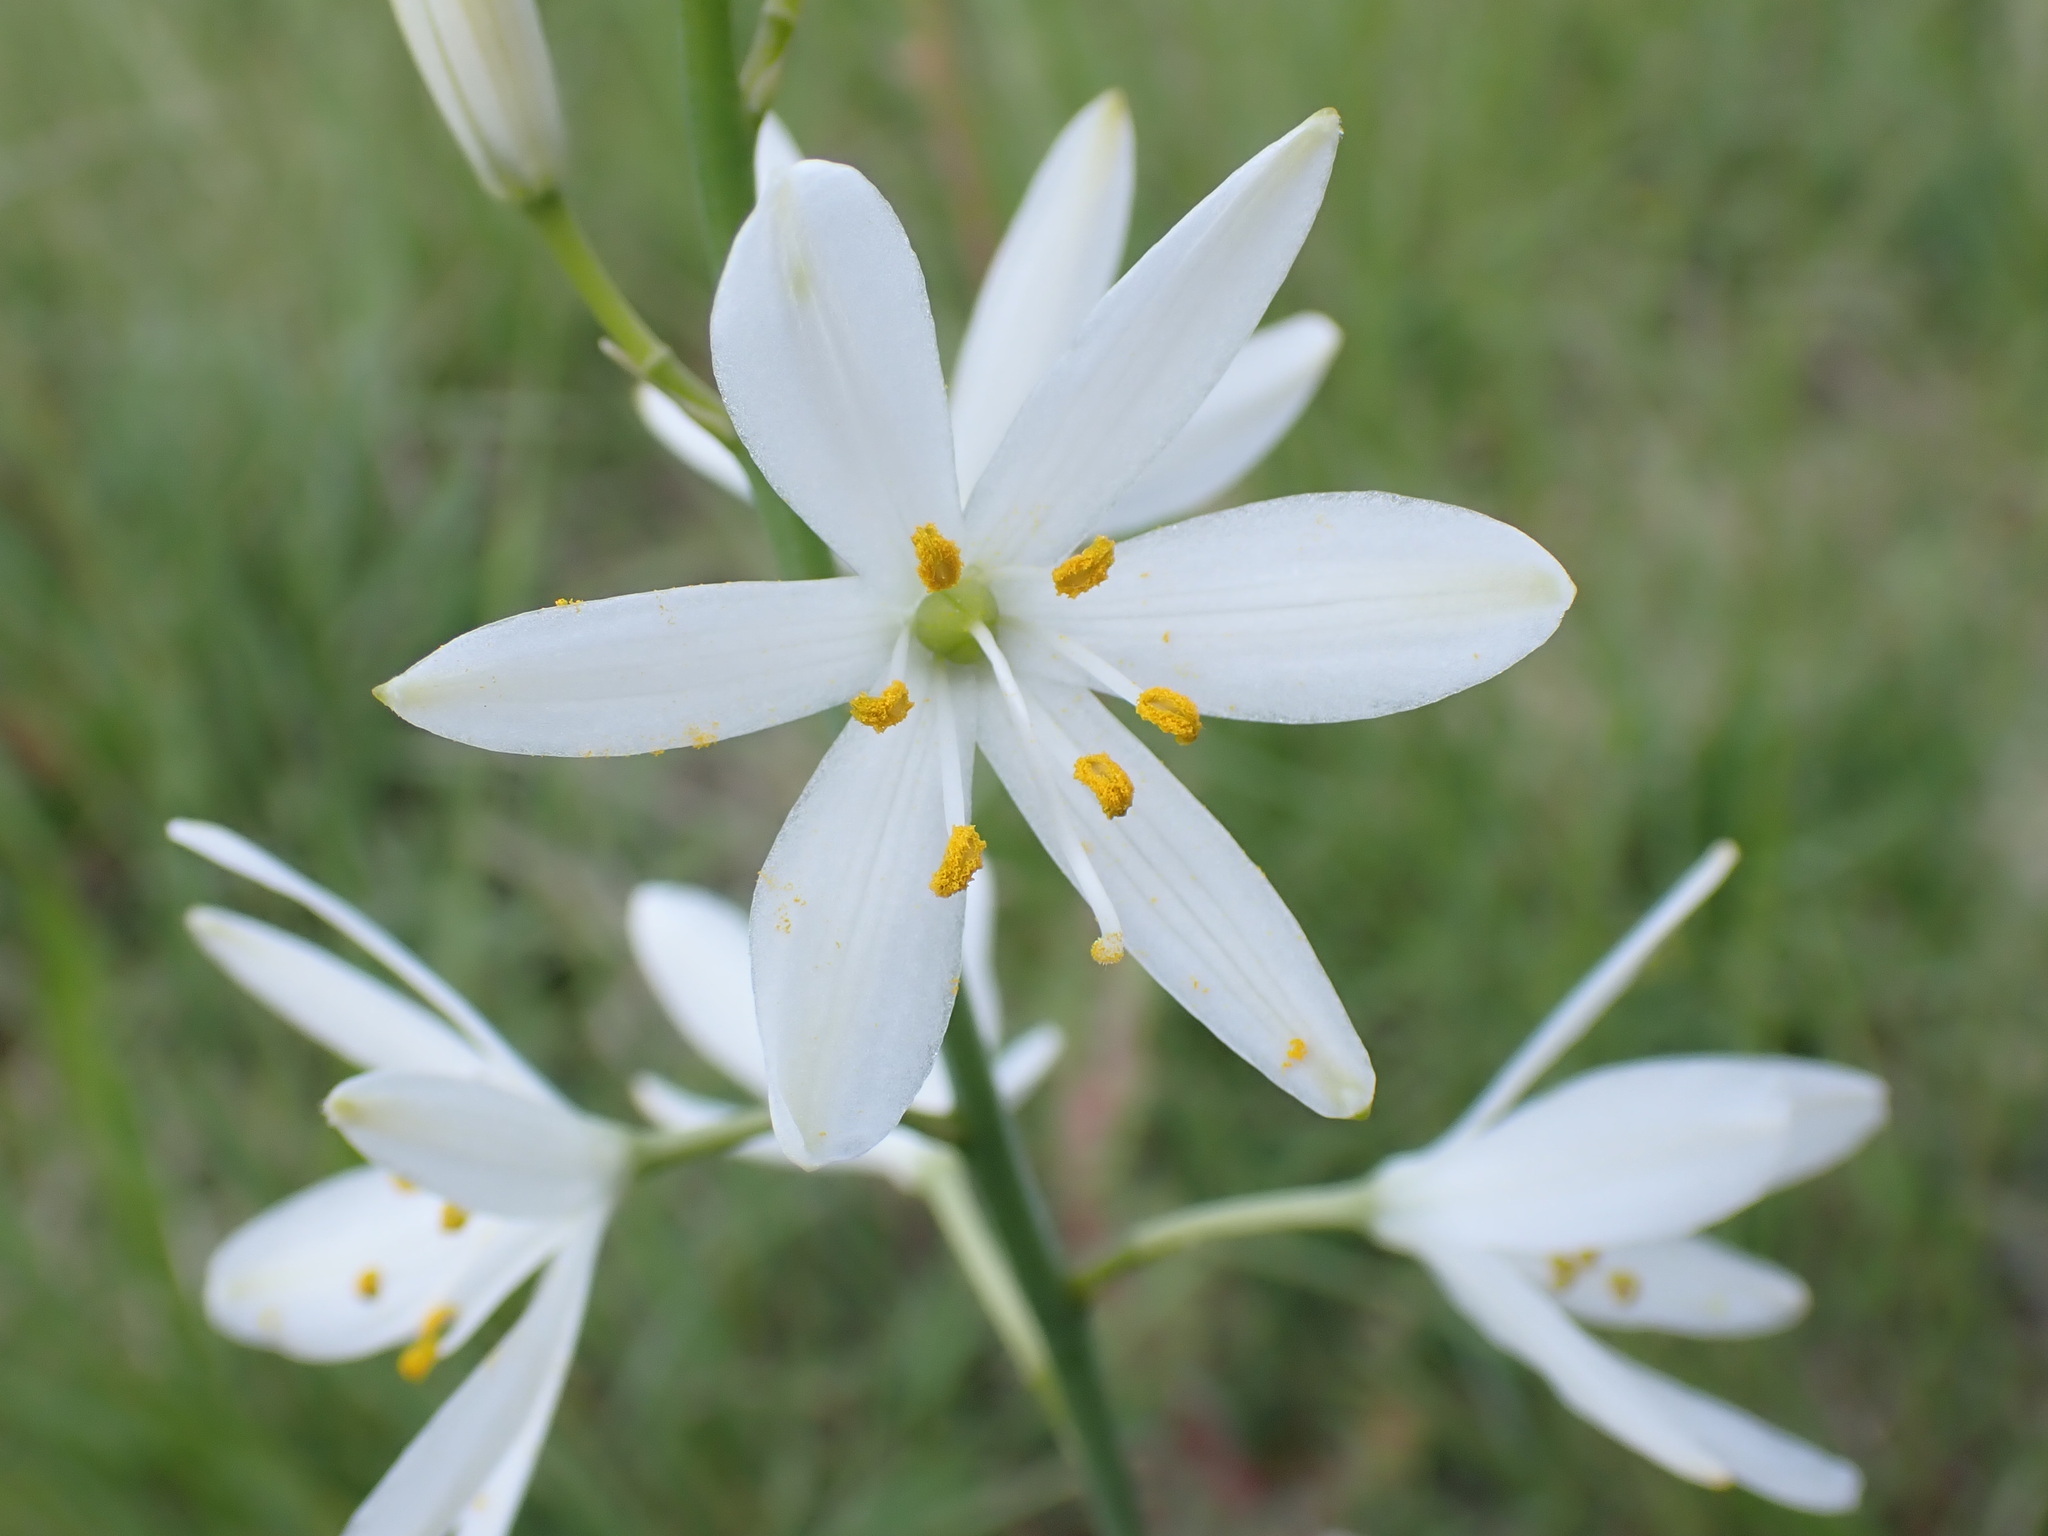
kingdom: Plantae
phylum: Tracheophyta
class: Liliopsida
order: Asparagales
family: Asparagaceae
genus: Anthericum
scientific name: Anthericum liliago
